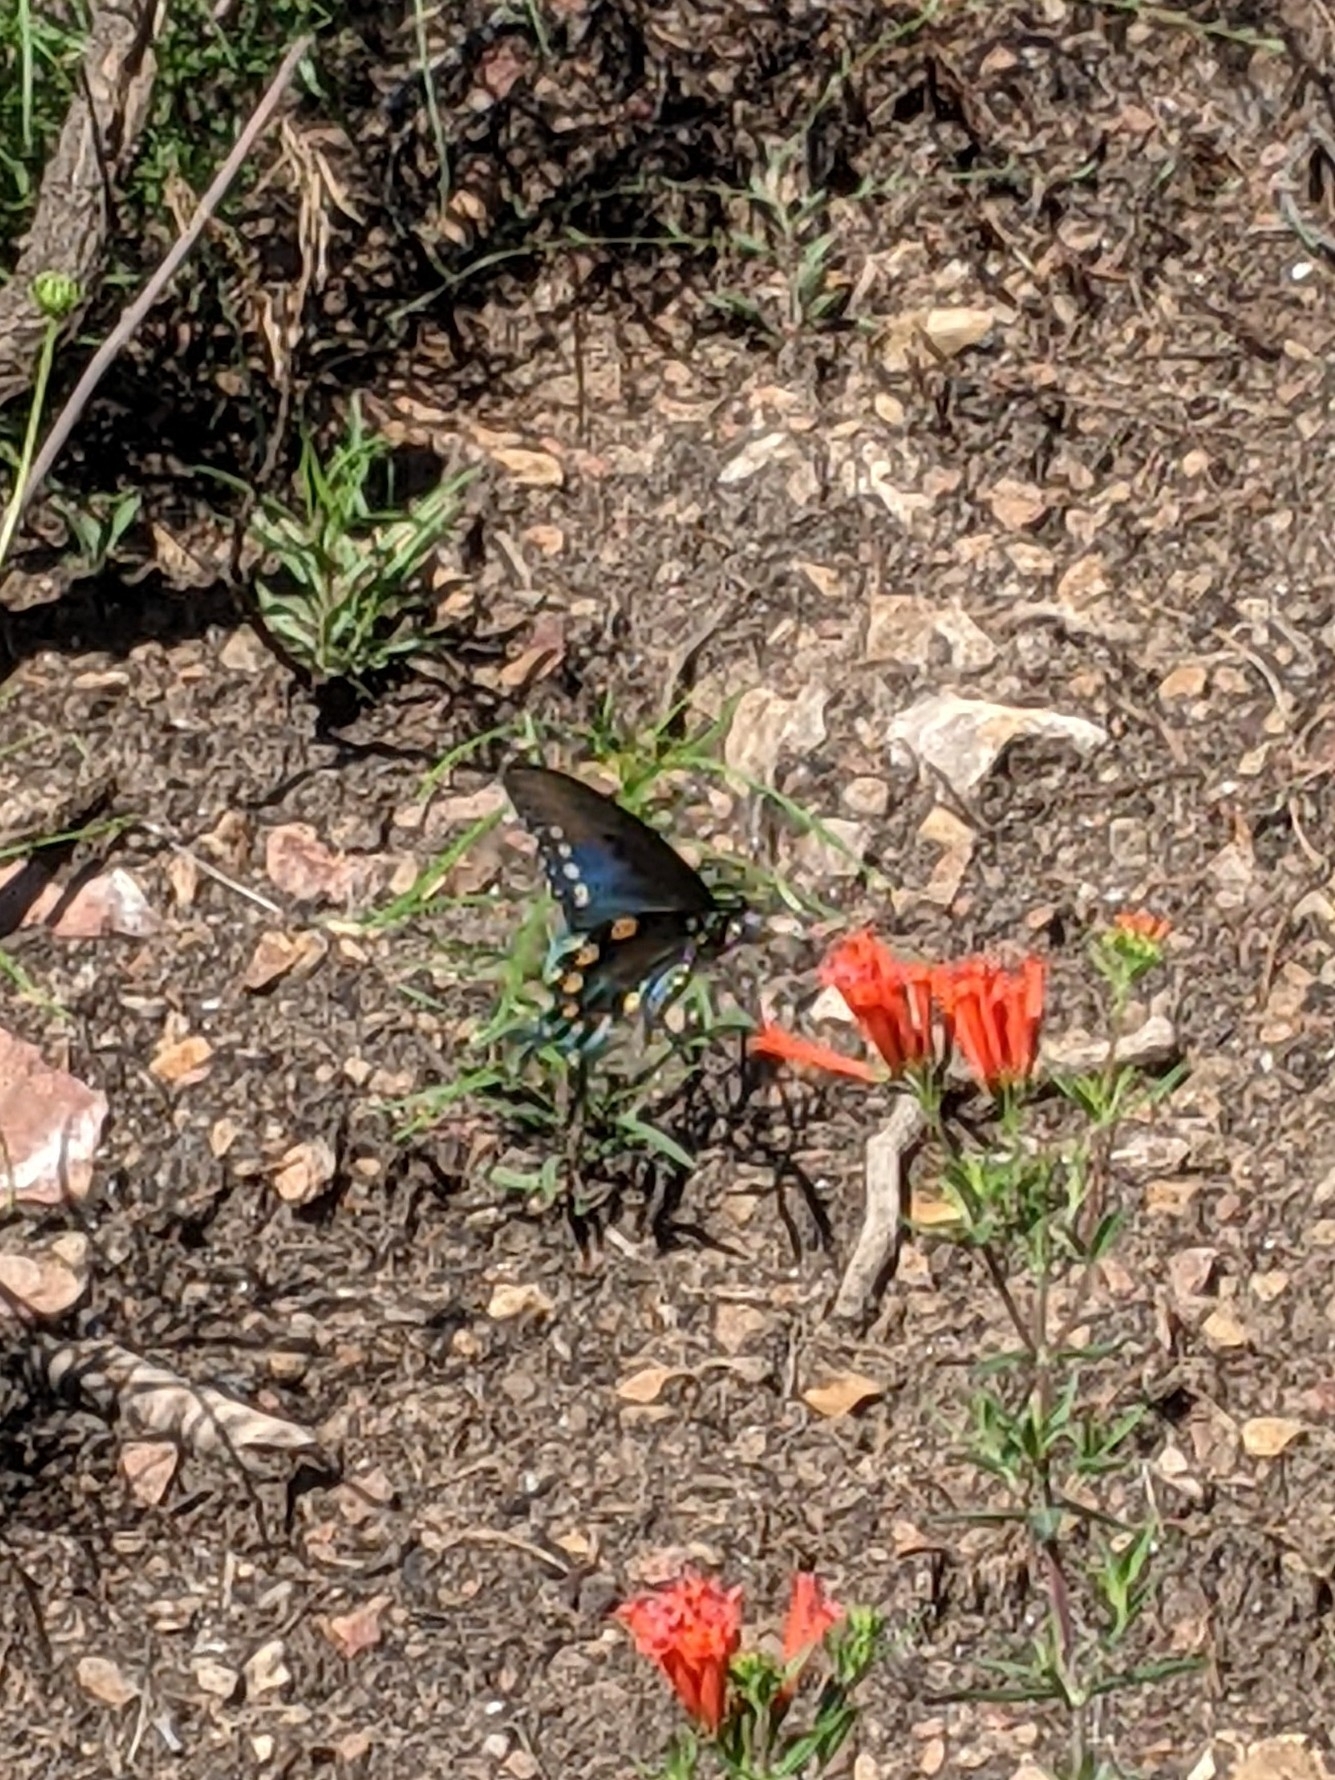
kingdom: Animalia
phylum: Arthropoda
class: Insecta
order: Lepidoptera
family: Papilionidae
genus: Battus
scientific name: Battus philenor
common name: Pipevine swallowtail
